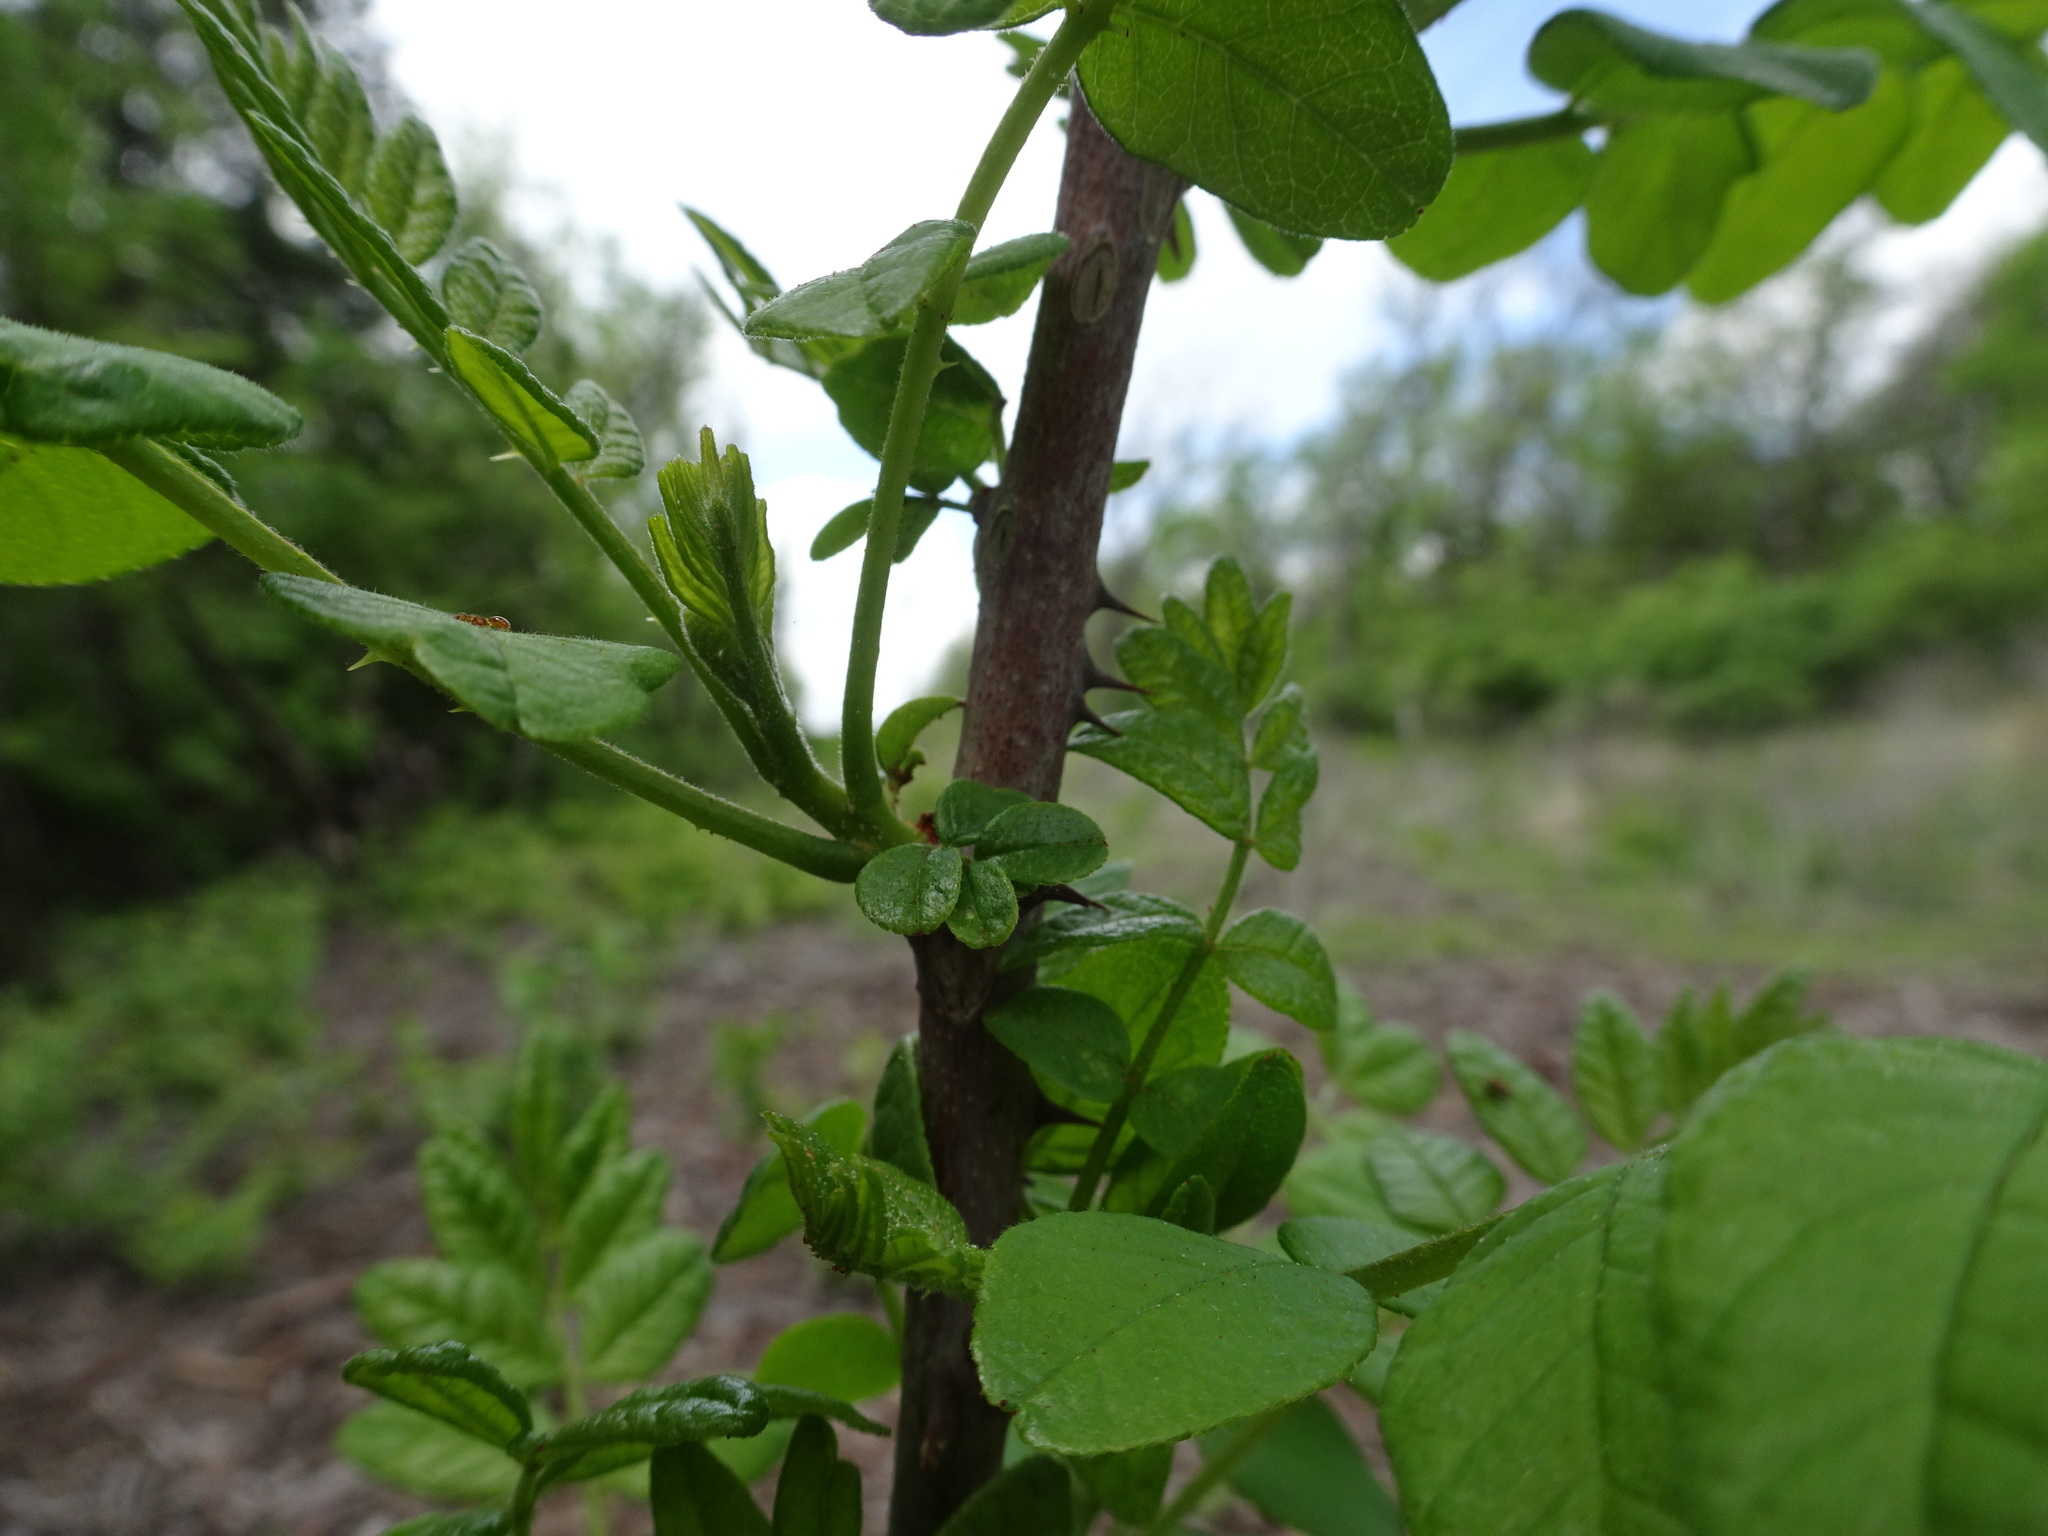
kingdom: Plantae
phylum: Tracheophyta
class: Magnoliopsida
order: Sapindales
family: Rutaceae
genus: Zanthoxylum
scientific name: Zanthoxylum americanum
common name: Northern prickly-ash
